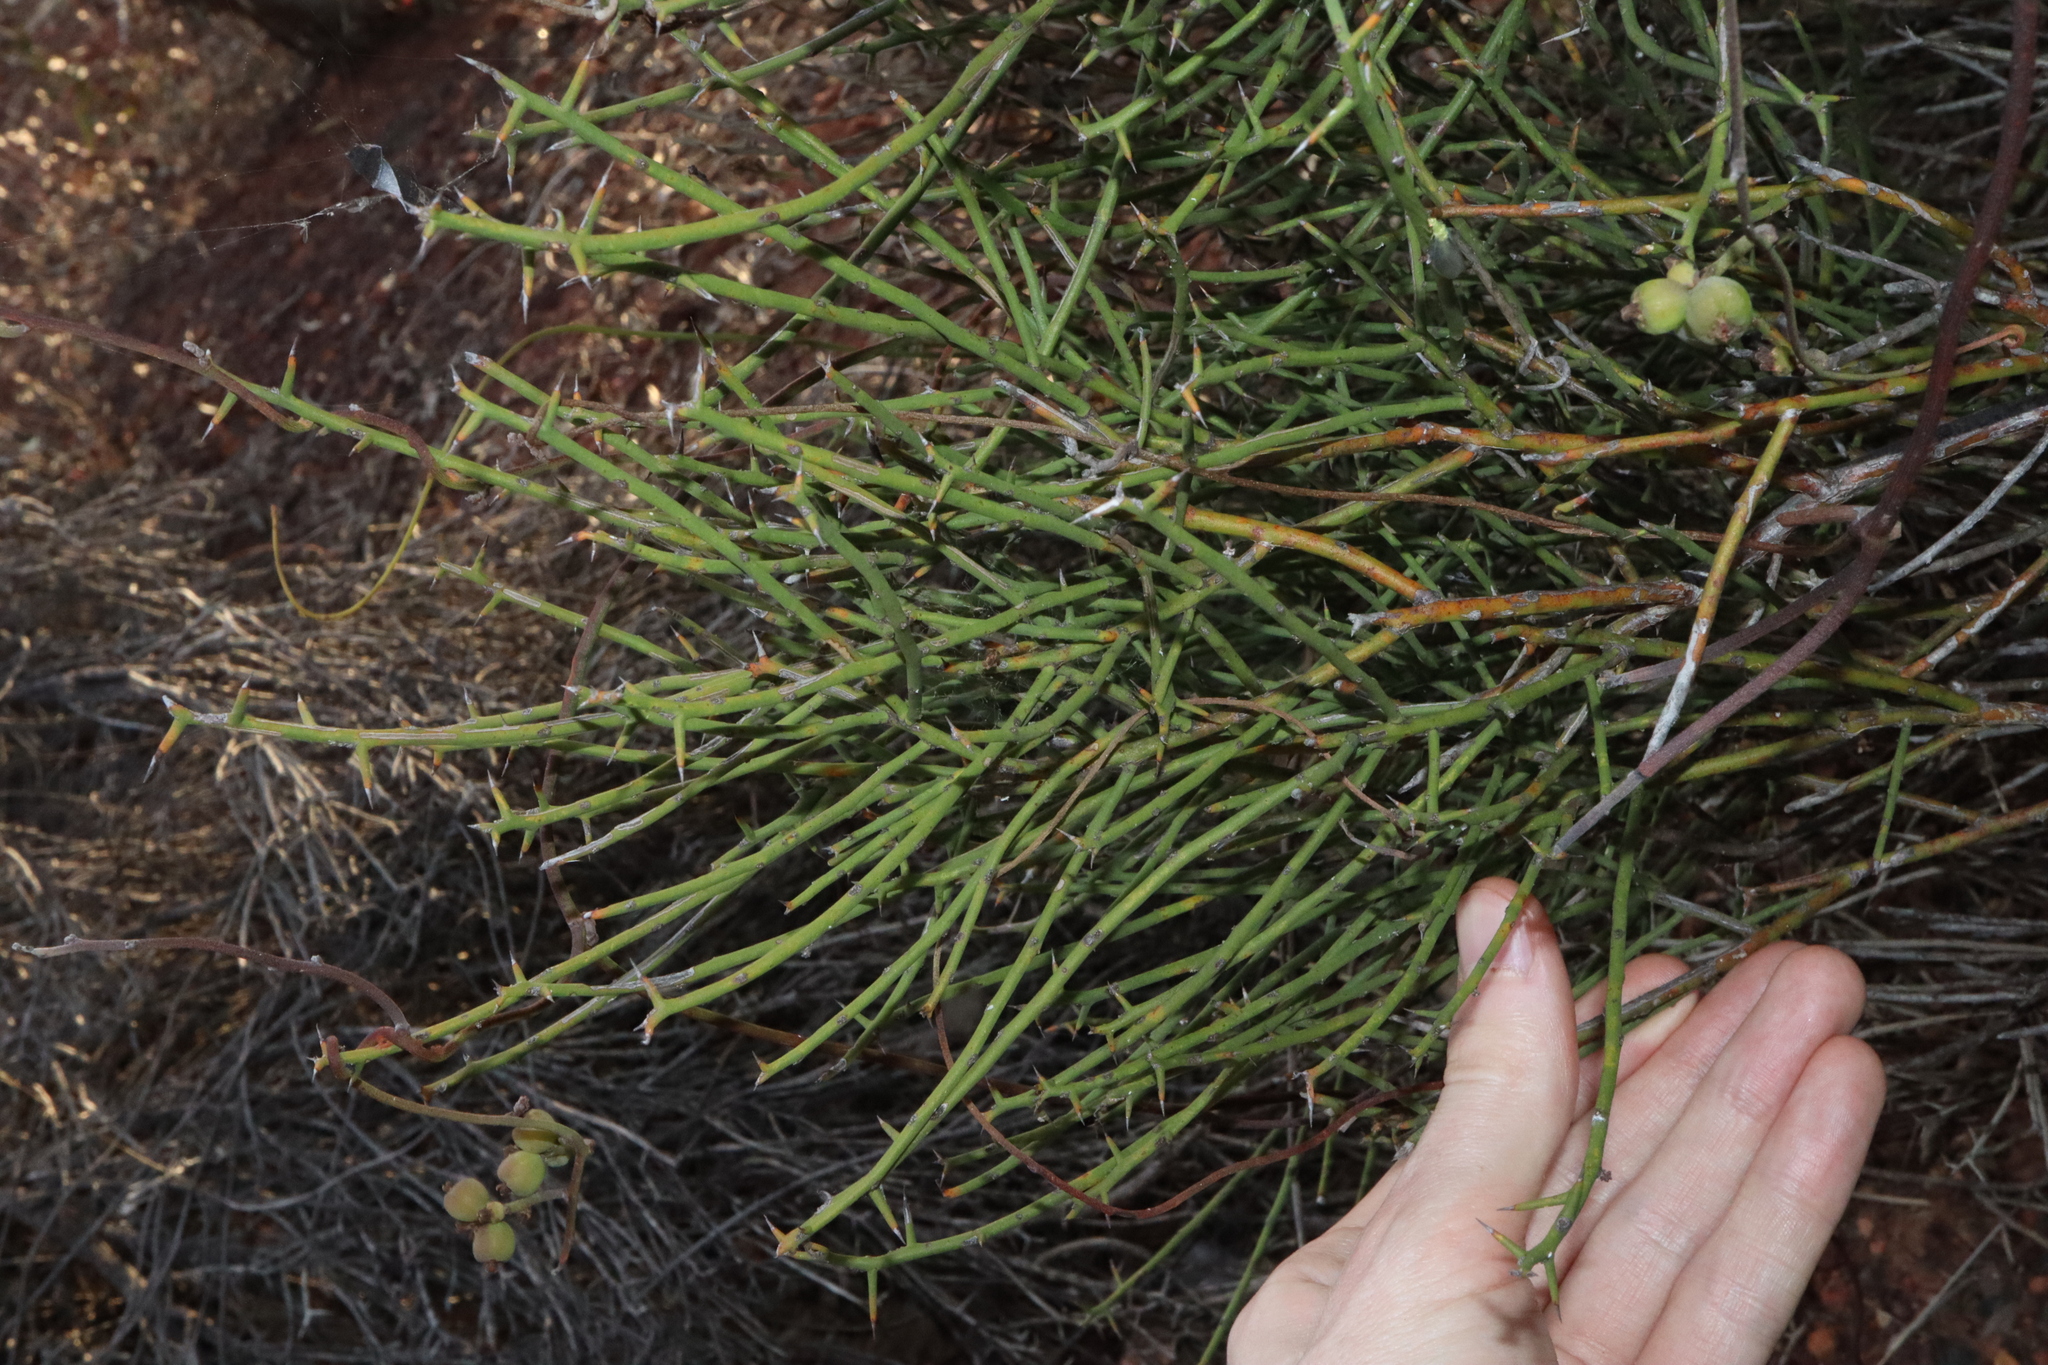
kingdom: Plantae
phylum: Tracheophyta
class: Magnoliopsida
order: Fabales
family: Fabaceae
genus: Daviesia
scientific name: Daviesia aphylla
